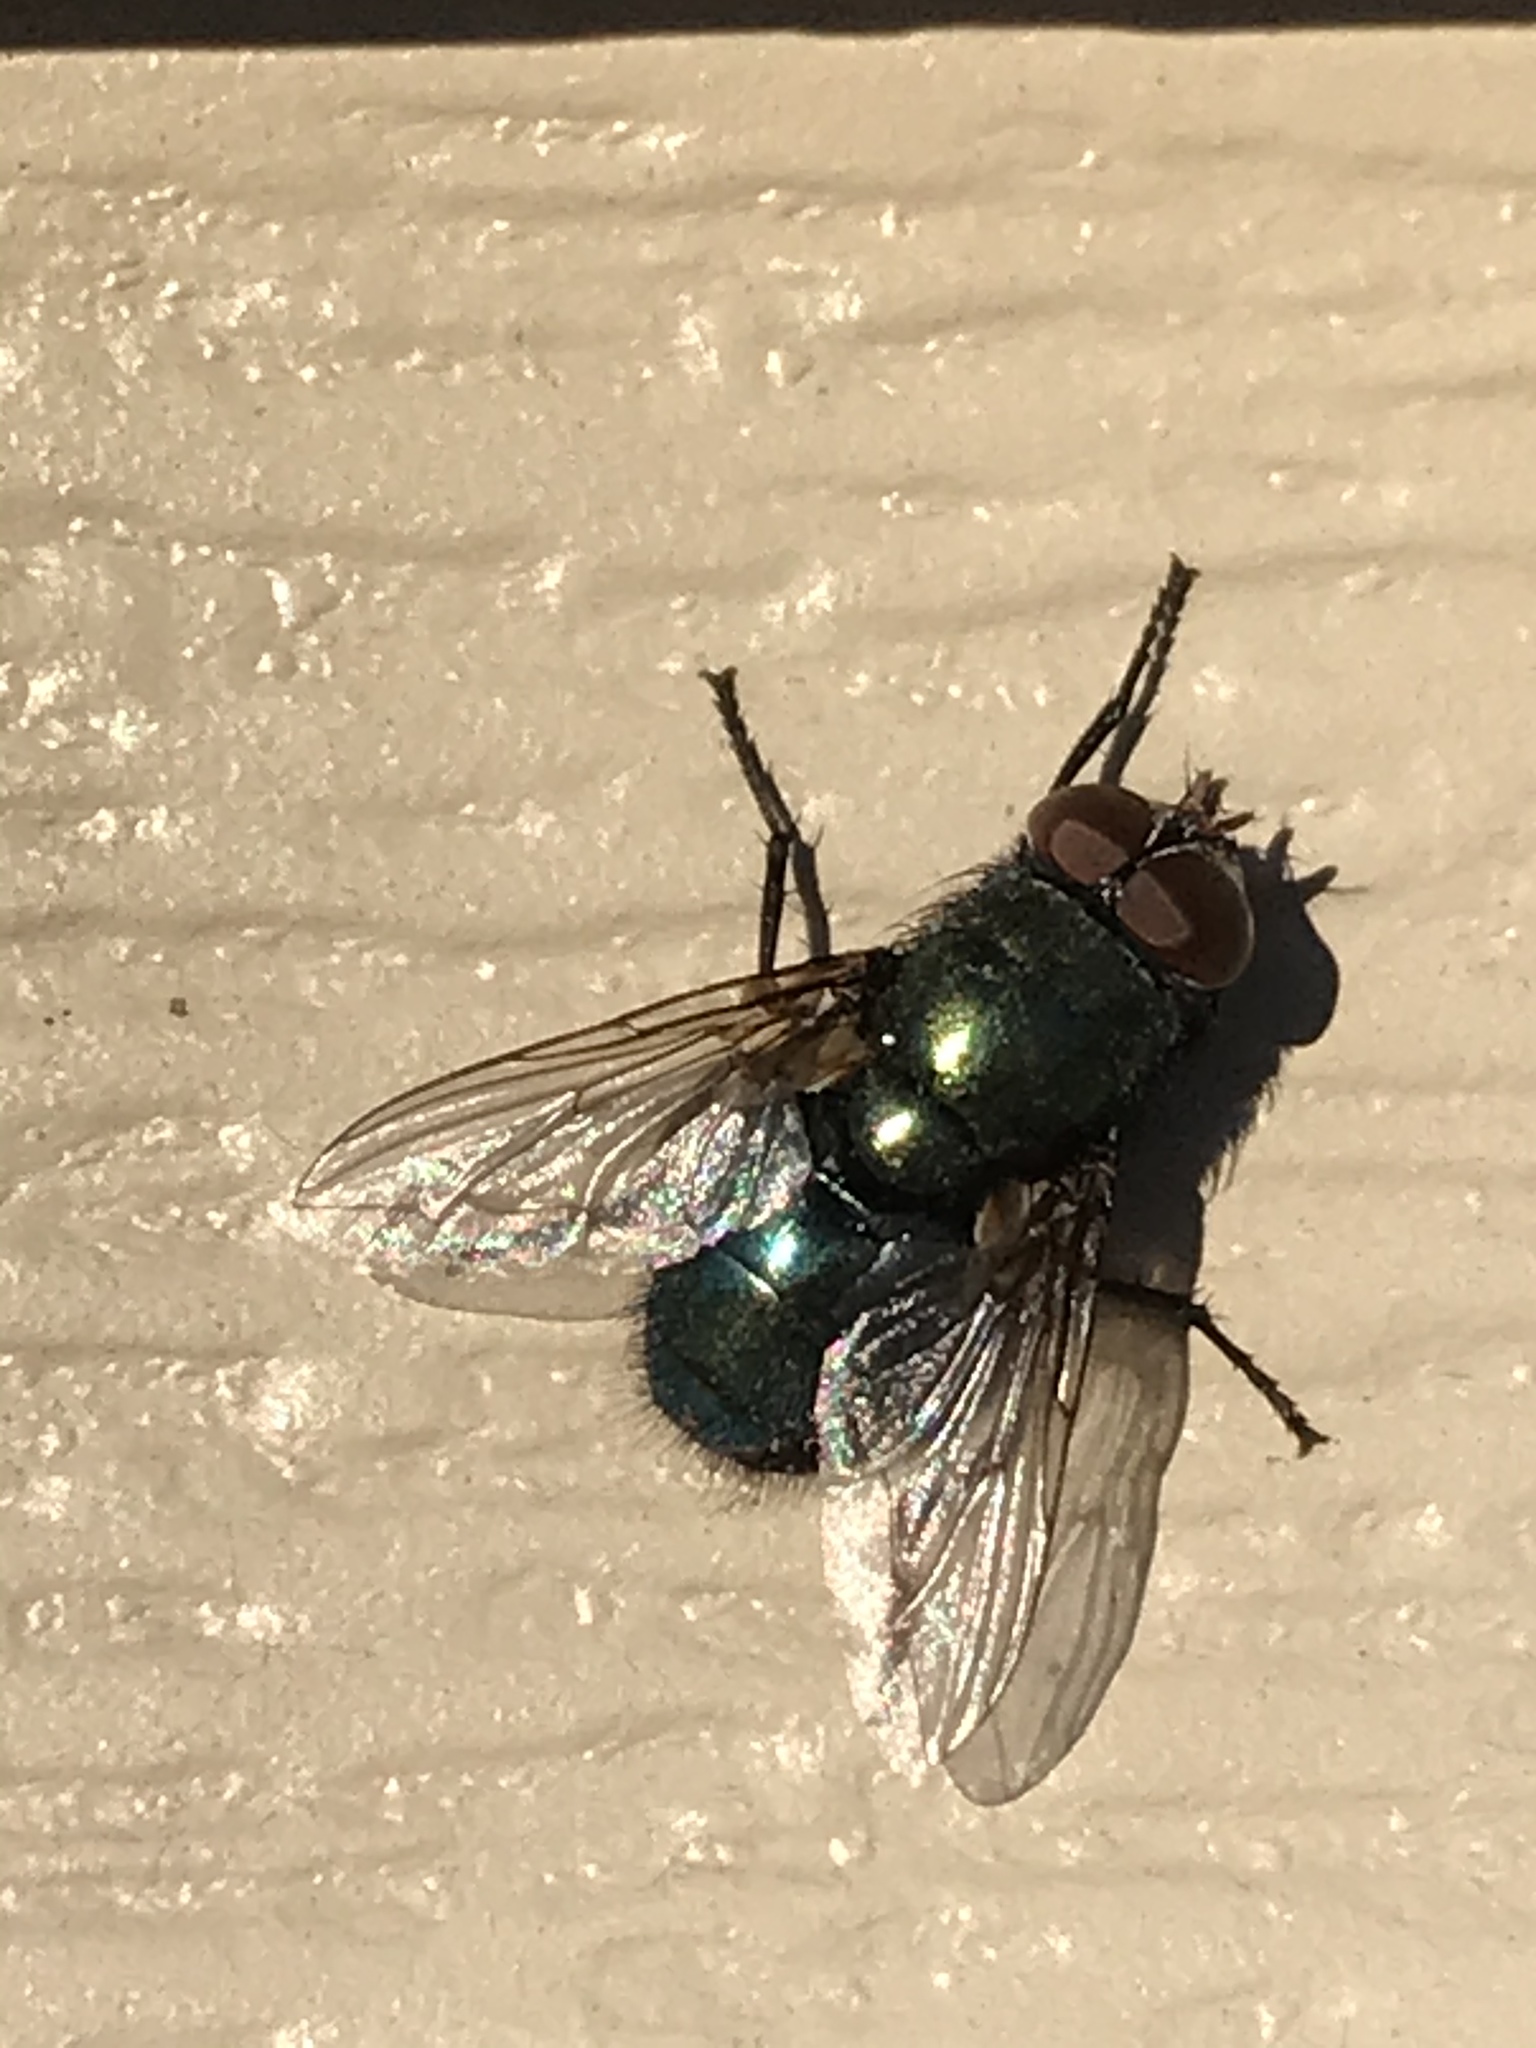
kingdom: Animalia
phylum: Arthropoda
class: Insecta
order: Diptera
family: Calliphoridae
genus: Phormia
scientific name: Phormia regina
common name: Black blow fly
